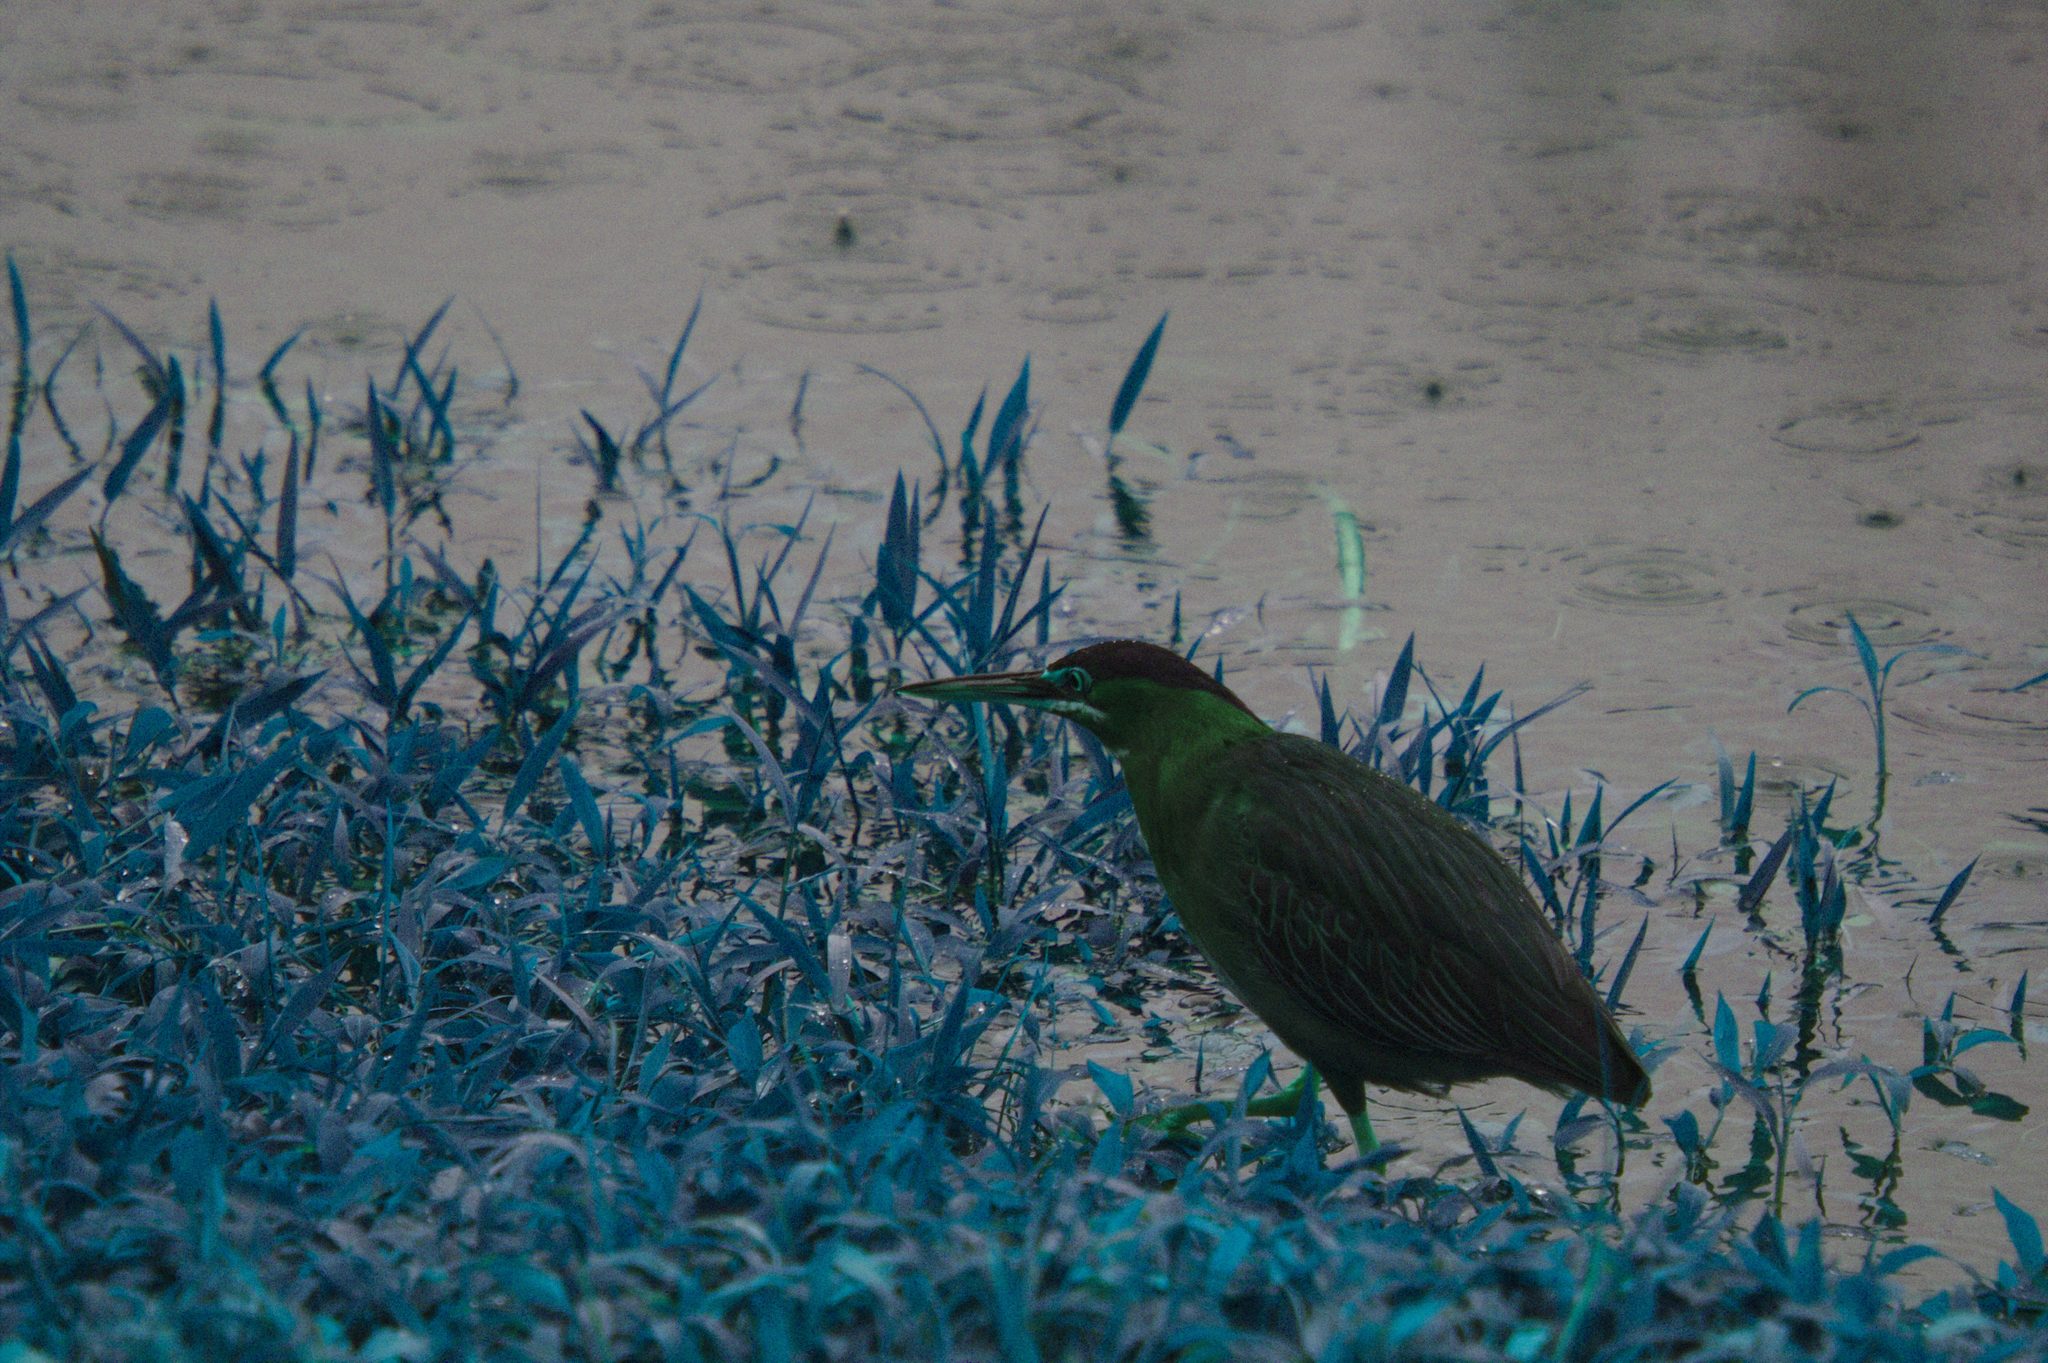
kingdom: Animalia
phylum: Chordata
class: Aves
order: Pelecaniformes
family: Ardeidae
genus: Butorides
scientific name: Butorides virescens
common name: Green heron
